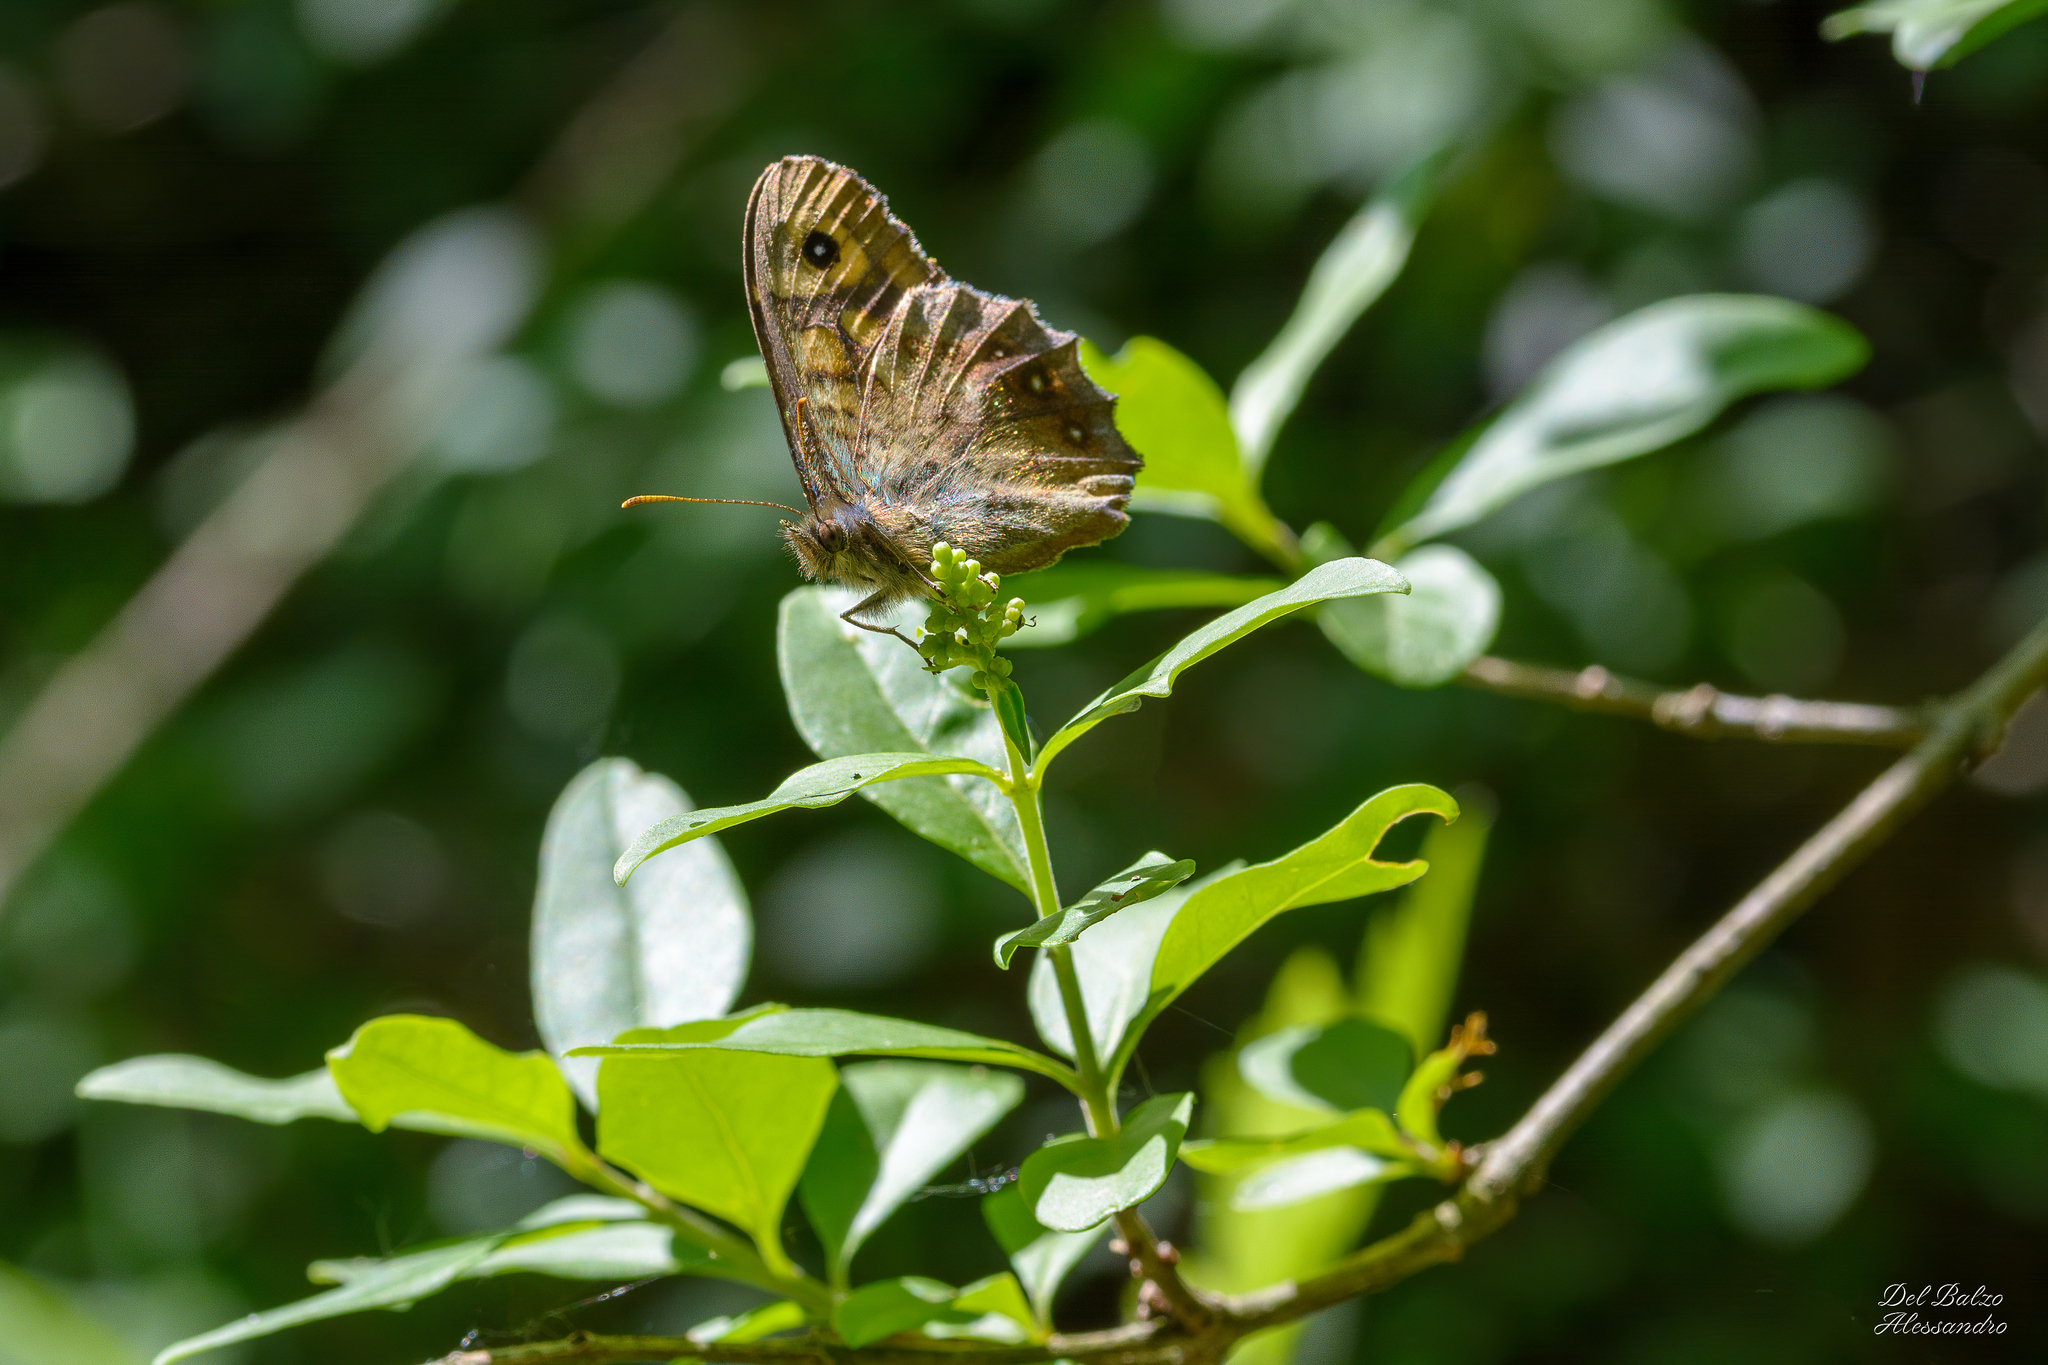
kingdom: Animalia
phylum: Arthropoda
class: Insecta
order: Lepidoptera
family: Nymphalidae
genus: Pararge
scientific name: Pararge aegeria
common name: Speckled wood
